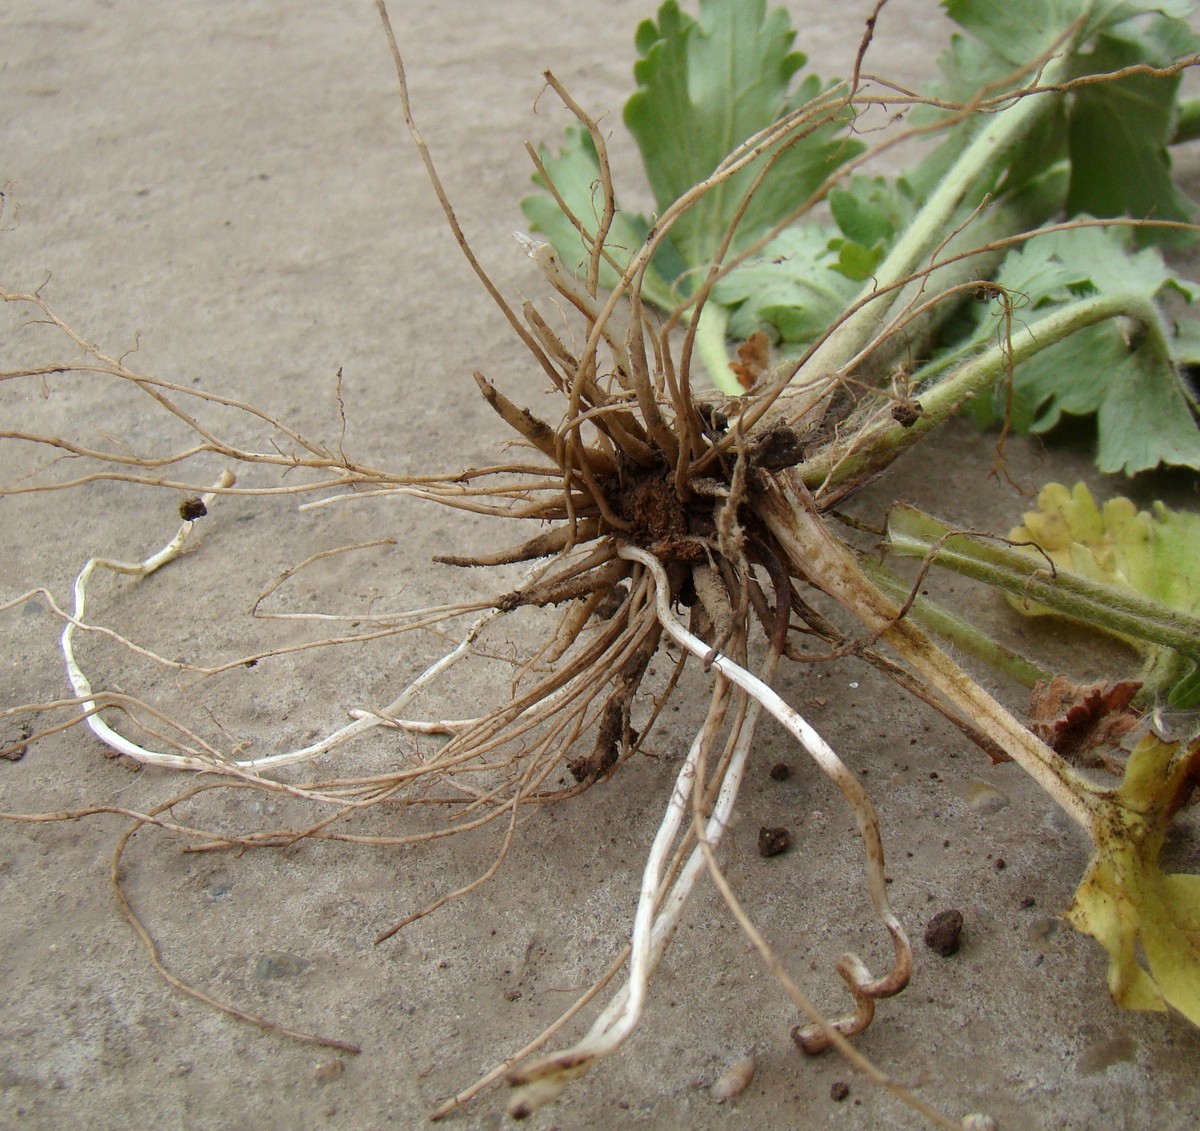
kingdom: Plantae
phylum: Tracheophyta
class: Magnoliopsida
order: Ranunculales
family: Ranunculaceae
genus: Ranunculus
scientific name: Ranunculus oxyspermus
